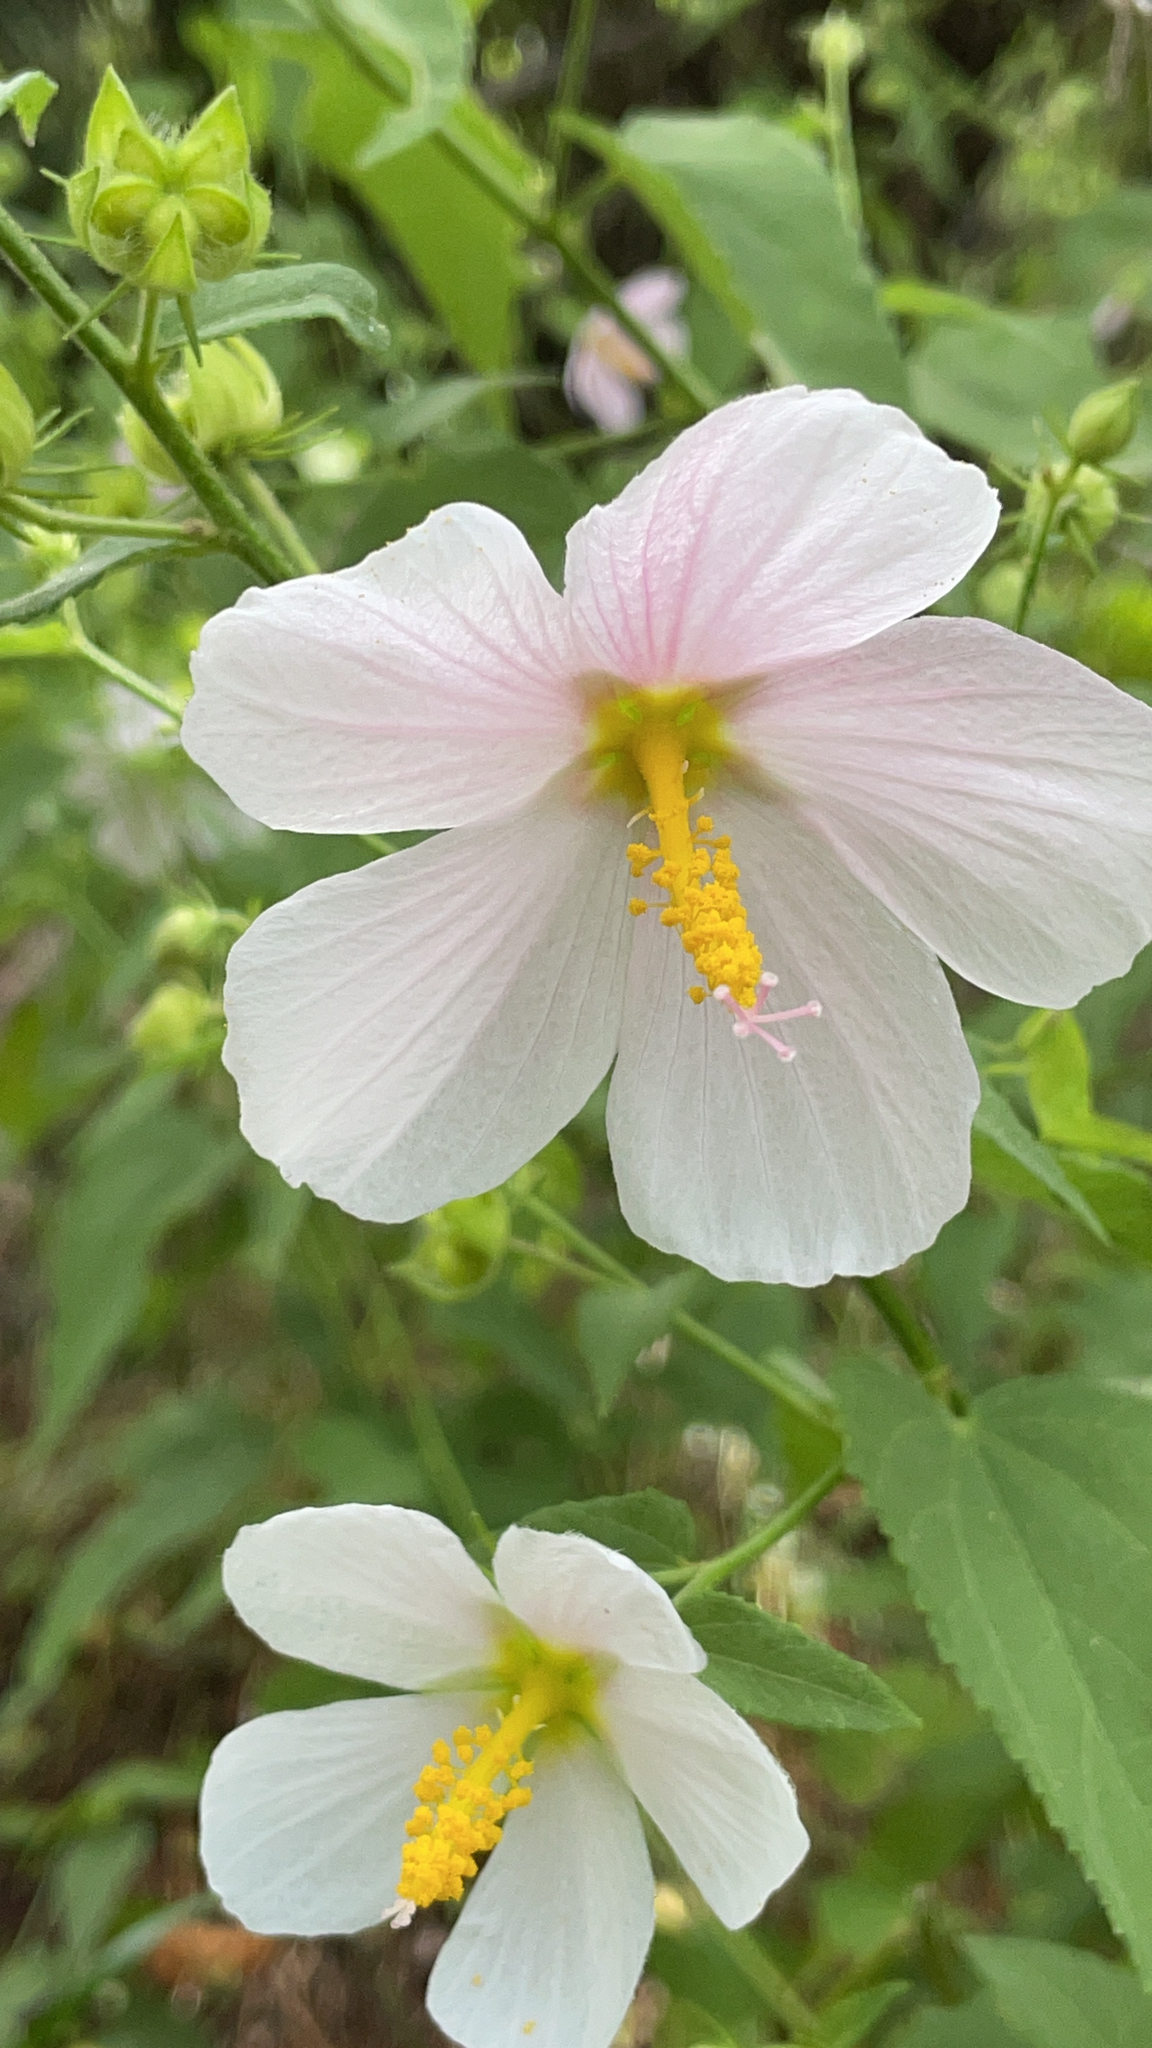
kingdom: Plantae
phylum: Tracheophyta
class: Magnoliopsida
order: Malvales
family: Malvaceae
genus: Kosteletzkya
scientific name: Kosteletzkya pentacarpos
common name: Virginia saltmarsh mallow
